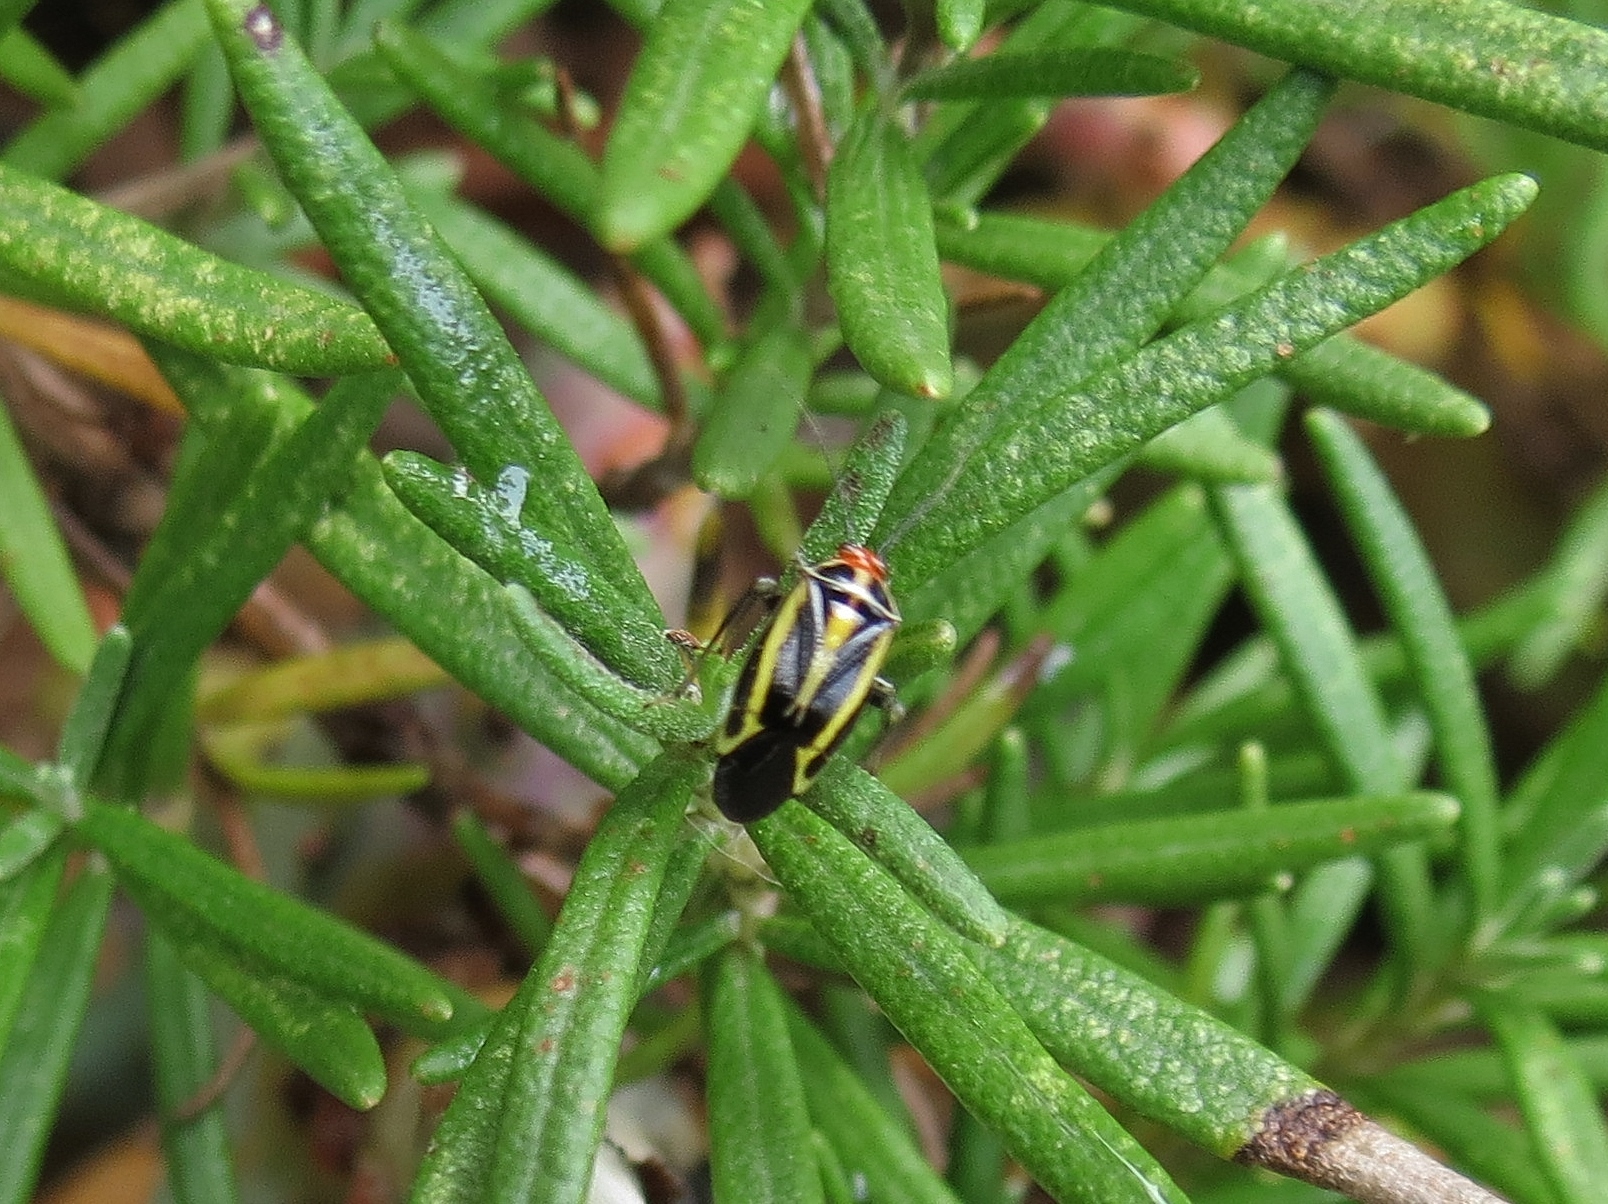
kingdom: Animalia
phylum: Arthropoda
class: Insecta
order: Hemiptera
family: Miridae
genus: Poecilocapsus
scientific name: Poecilocapsus lineatus
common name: Four-lined plant bug
